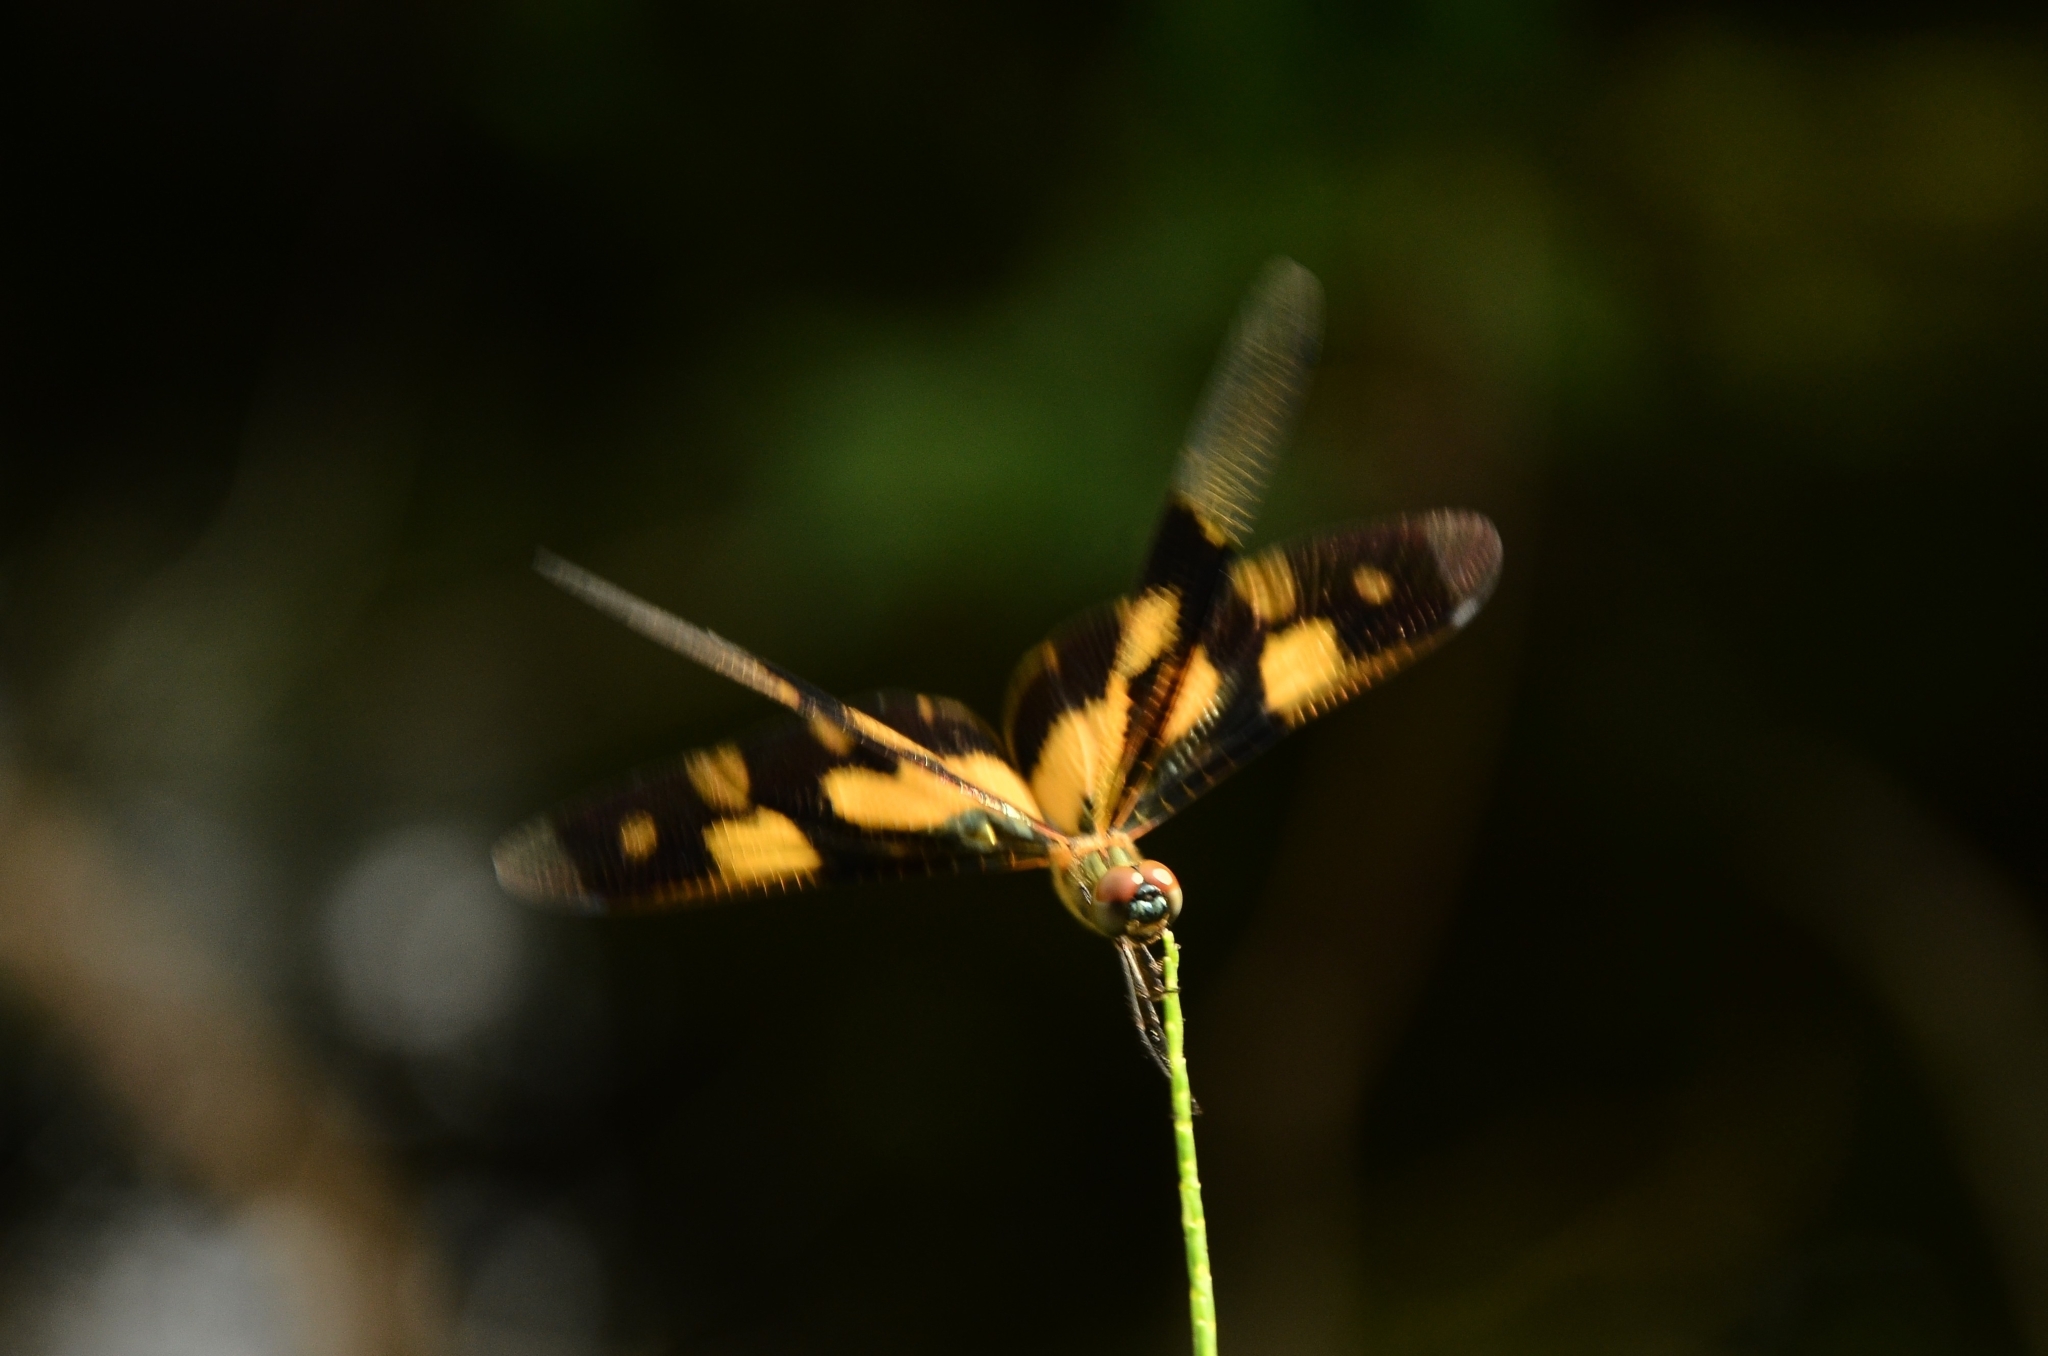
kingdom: Animalia
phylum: Arthropoda
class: Insecta
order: Odonata
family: Libellulidae
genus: Rhyothemis
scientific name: Rhyothemis variegata
